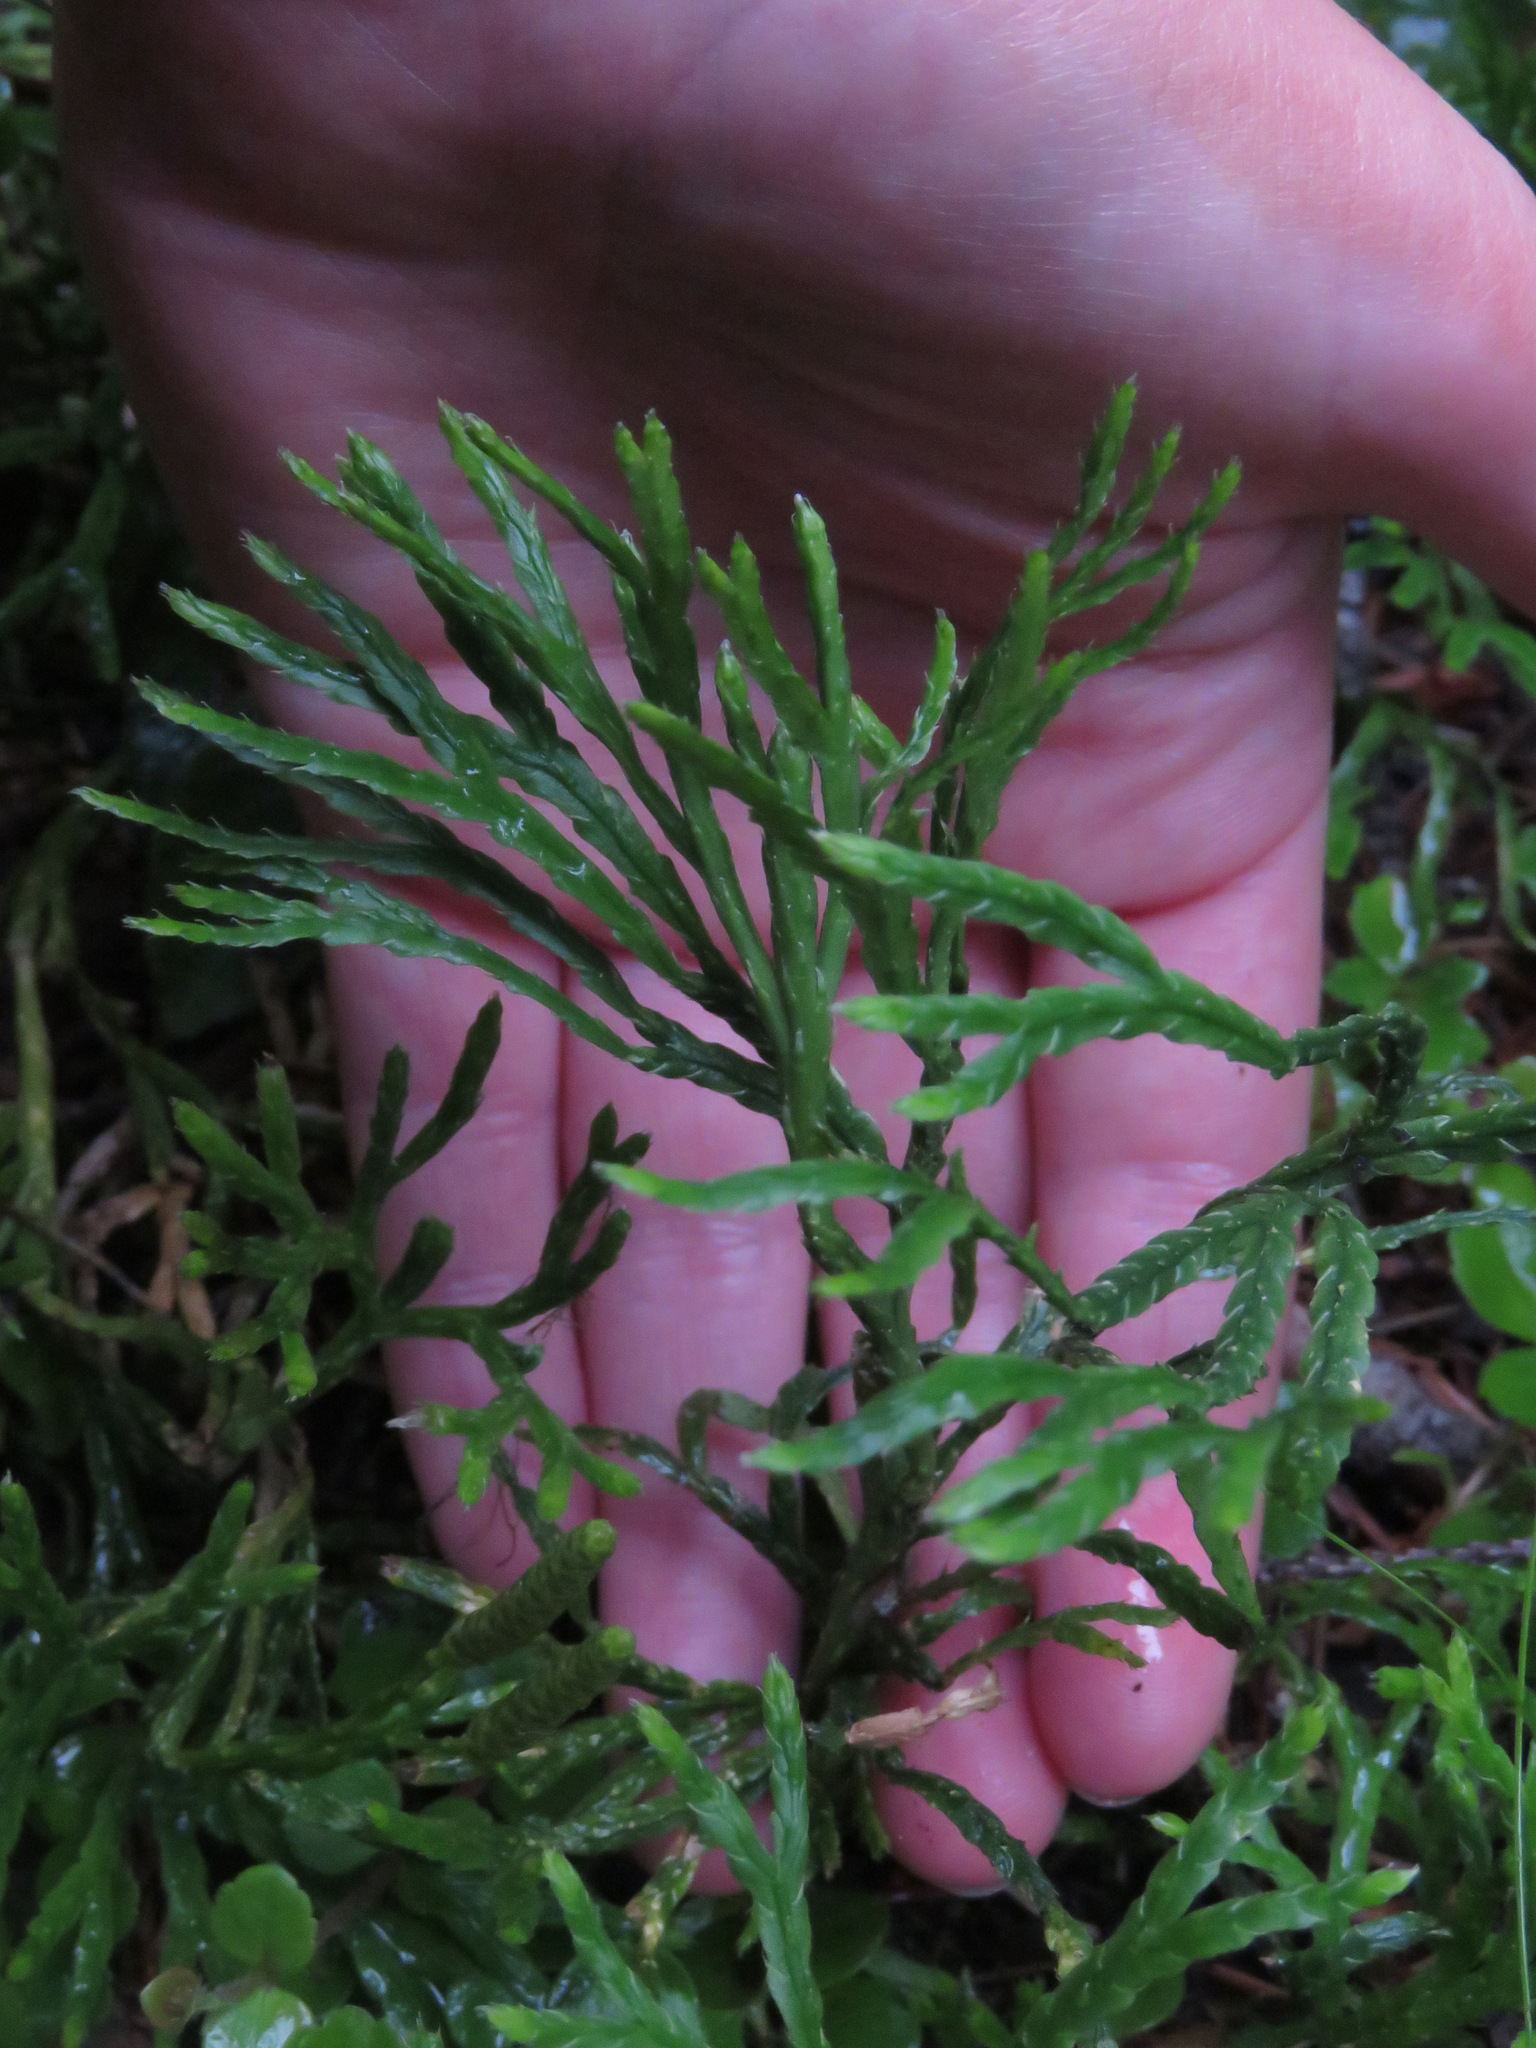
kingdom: Plantae
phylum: Tracheophyta
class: Lycopodiopsida
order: Lycopodiales
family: Lycopodiaceae
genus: Diphasiastrum
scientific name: Diphasiastrum complanatum
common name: Northern running-pine
